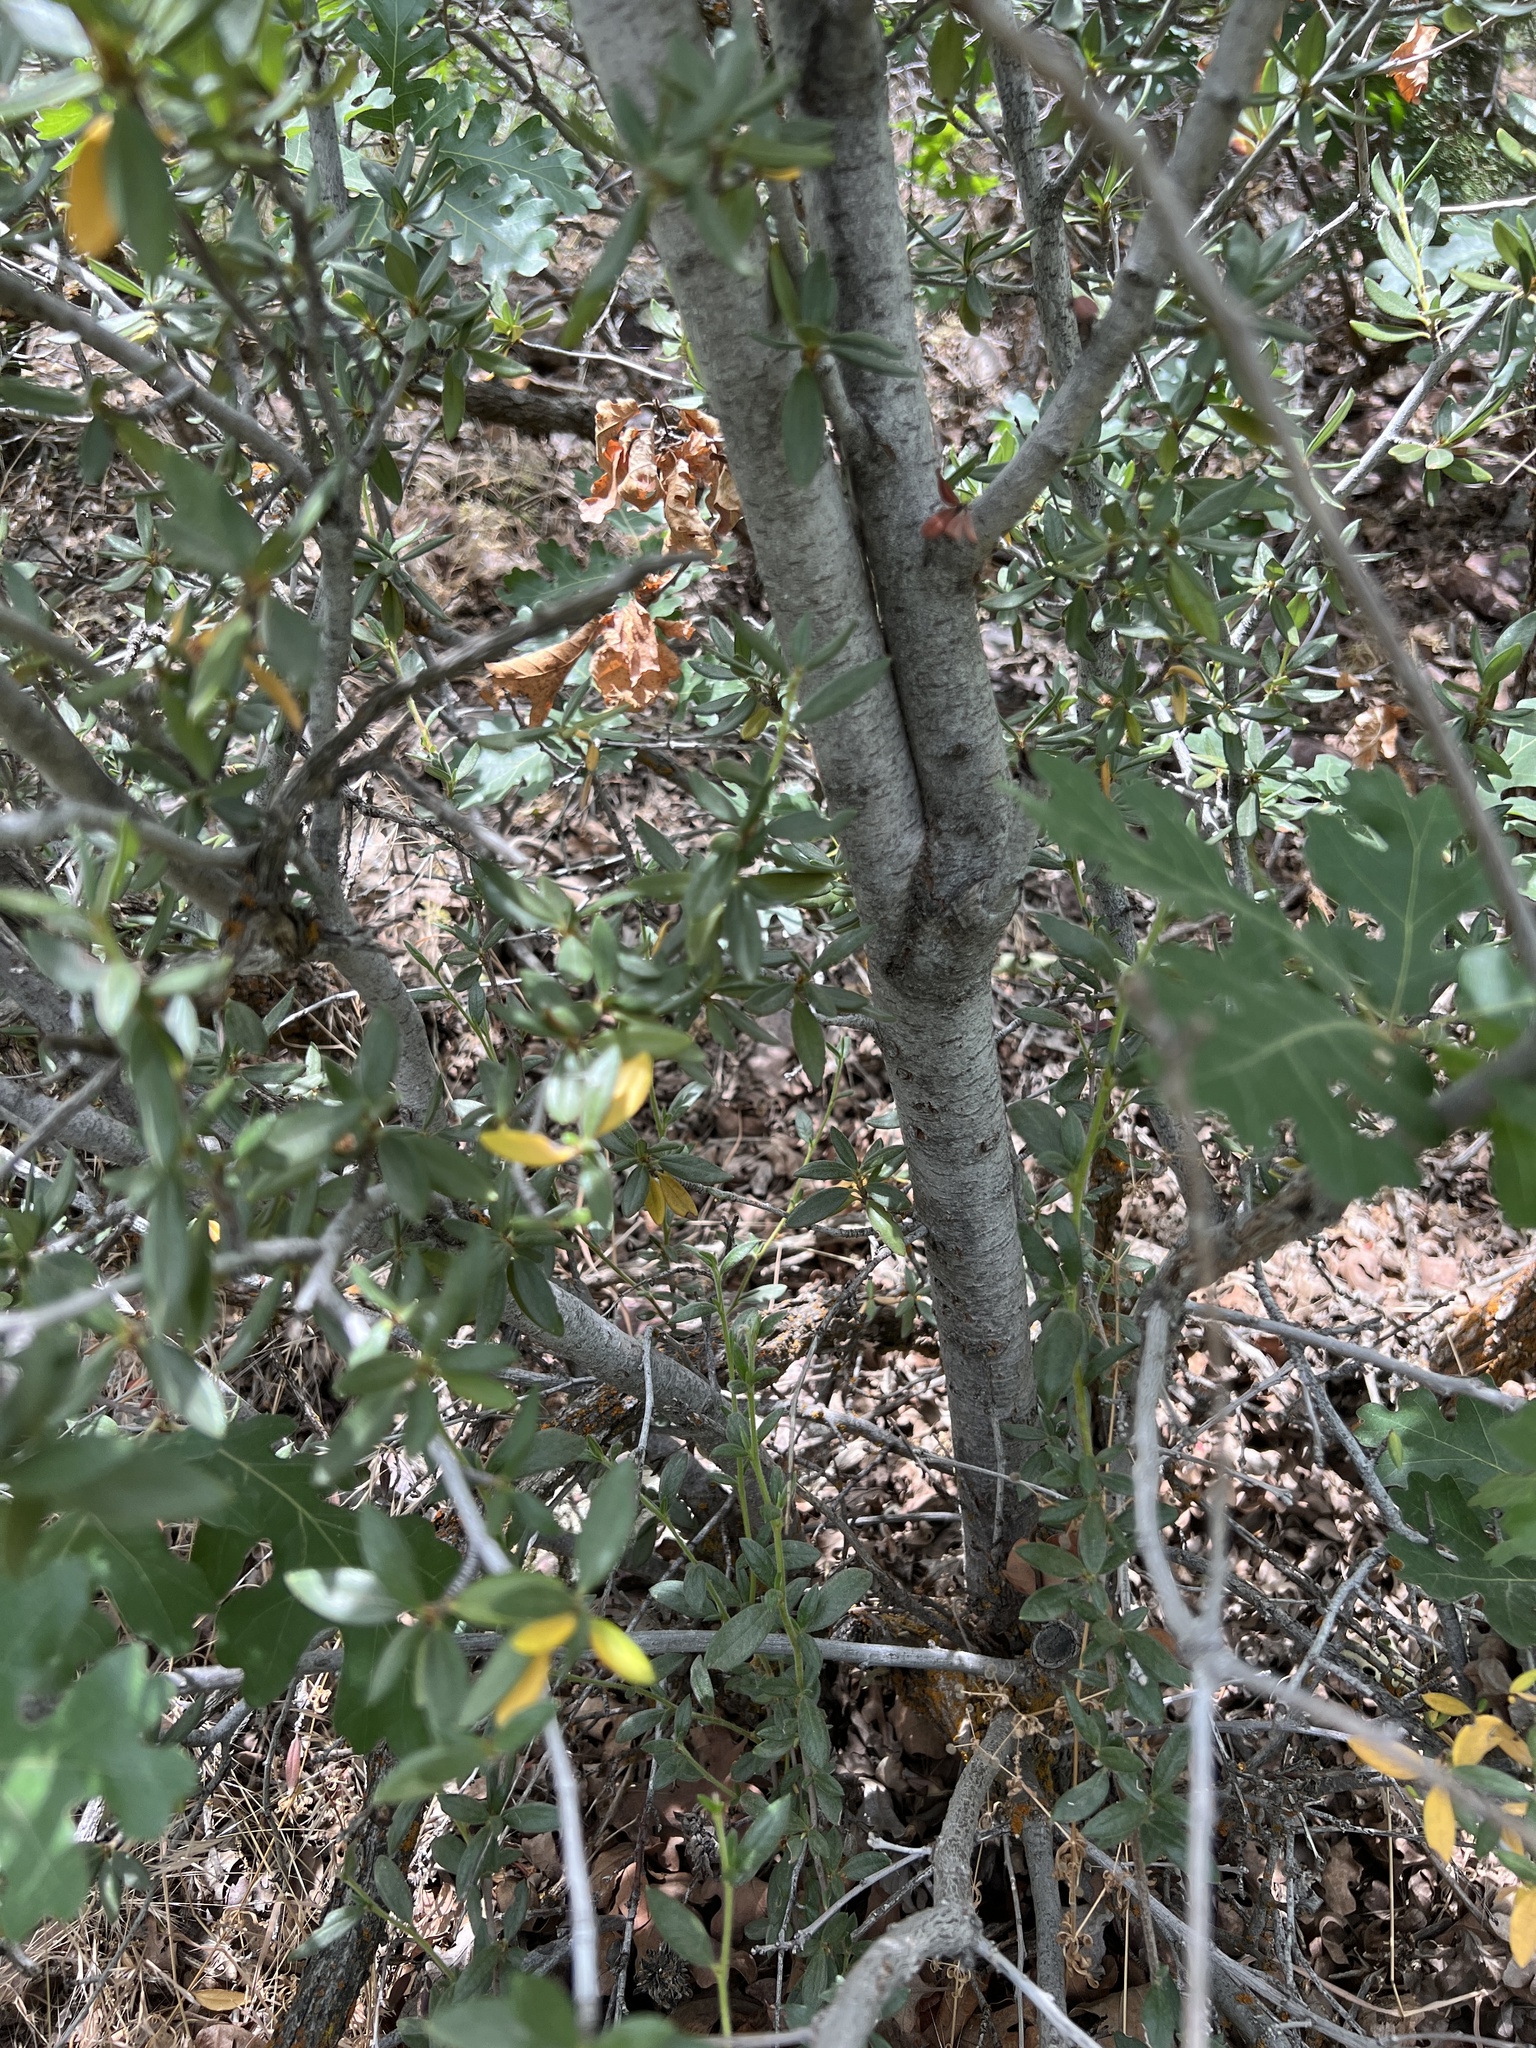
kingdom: Plantae
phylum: Tracheophyta
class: Magnoliopsida
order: Rosales
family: Rosaceae
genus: Cercocarpus
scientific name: Cercocarpus ledifolius
